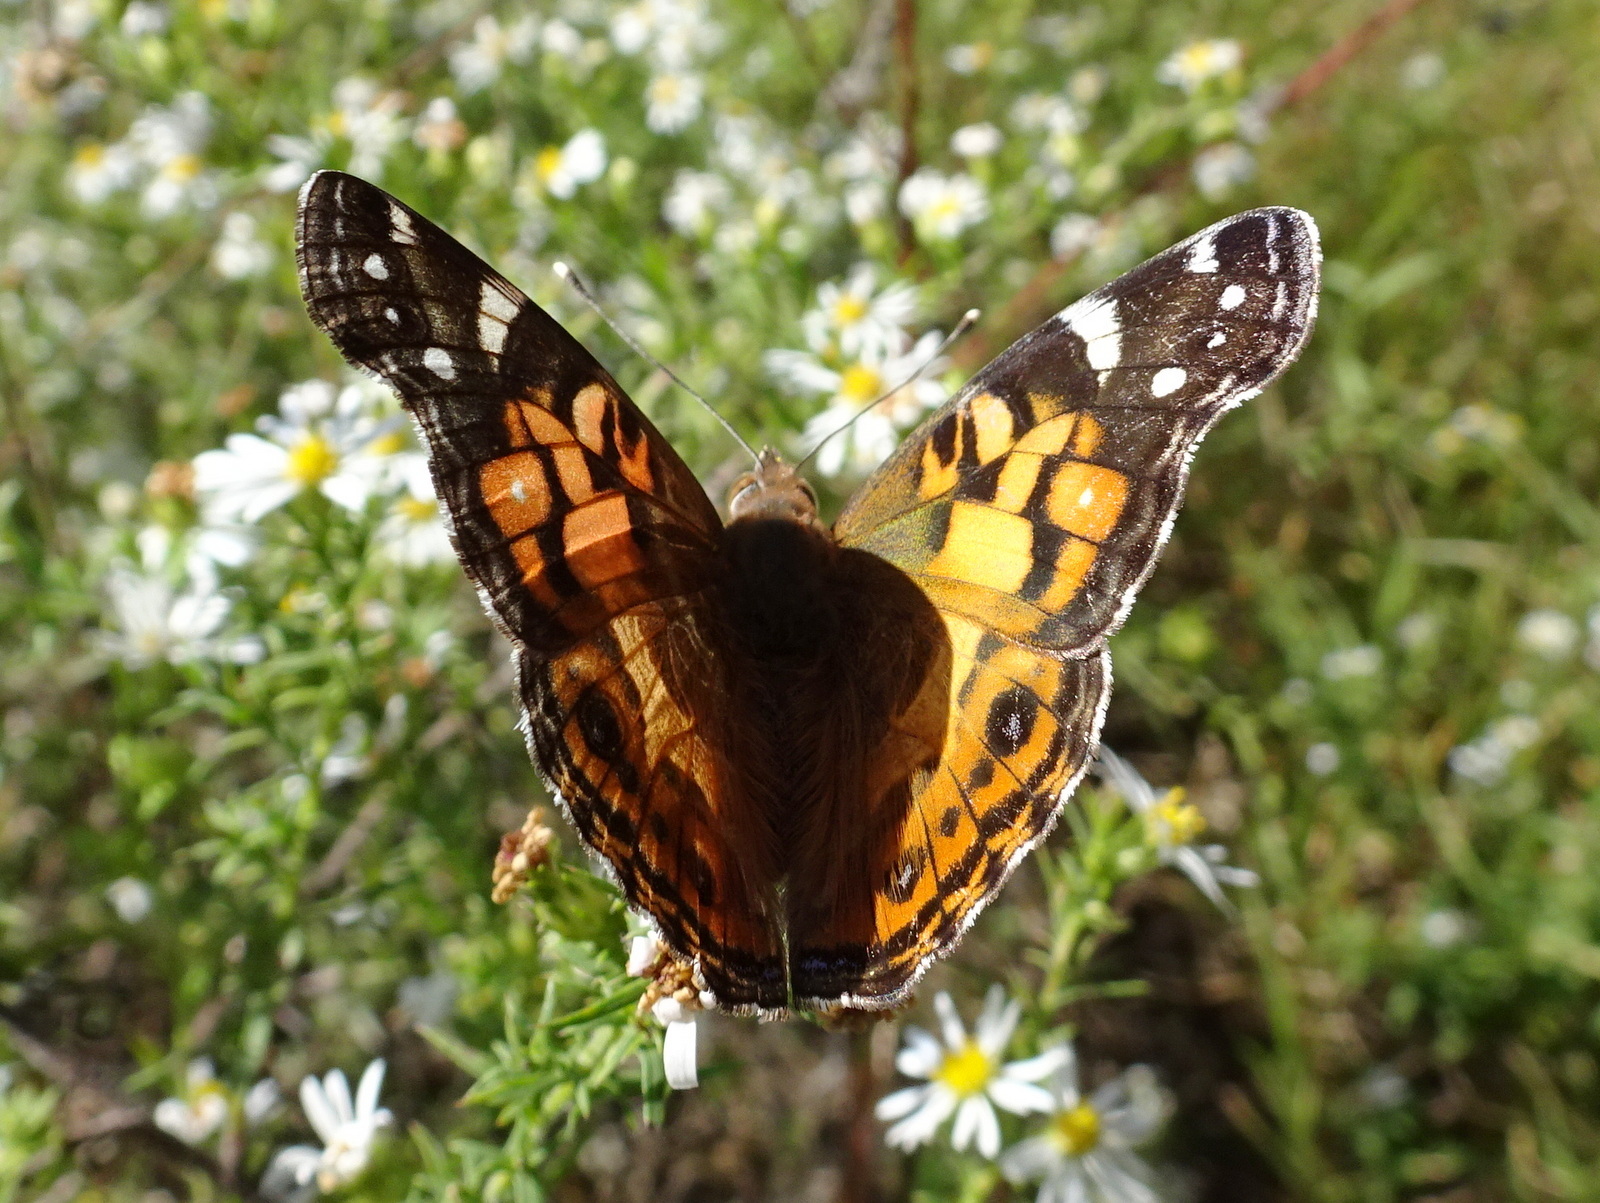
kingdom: Animalia
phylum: Arthropoda
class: Insecta
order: Lepidoptera
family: Nymphalidae
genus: Vanessa
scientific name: Vanessa virginiensis
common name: American lady
